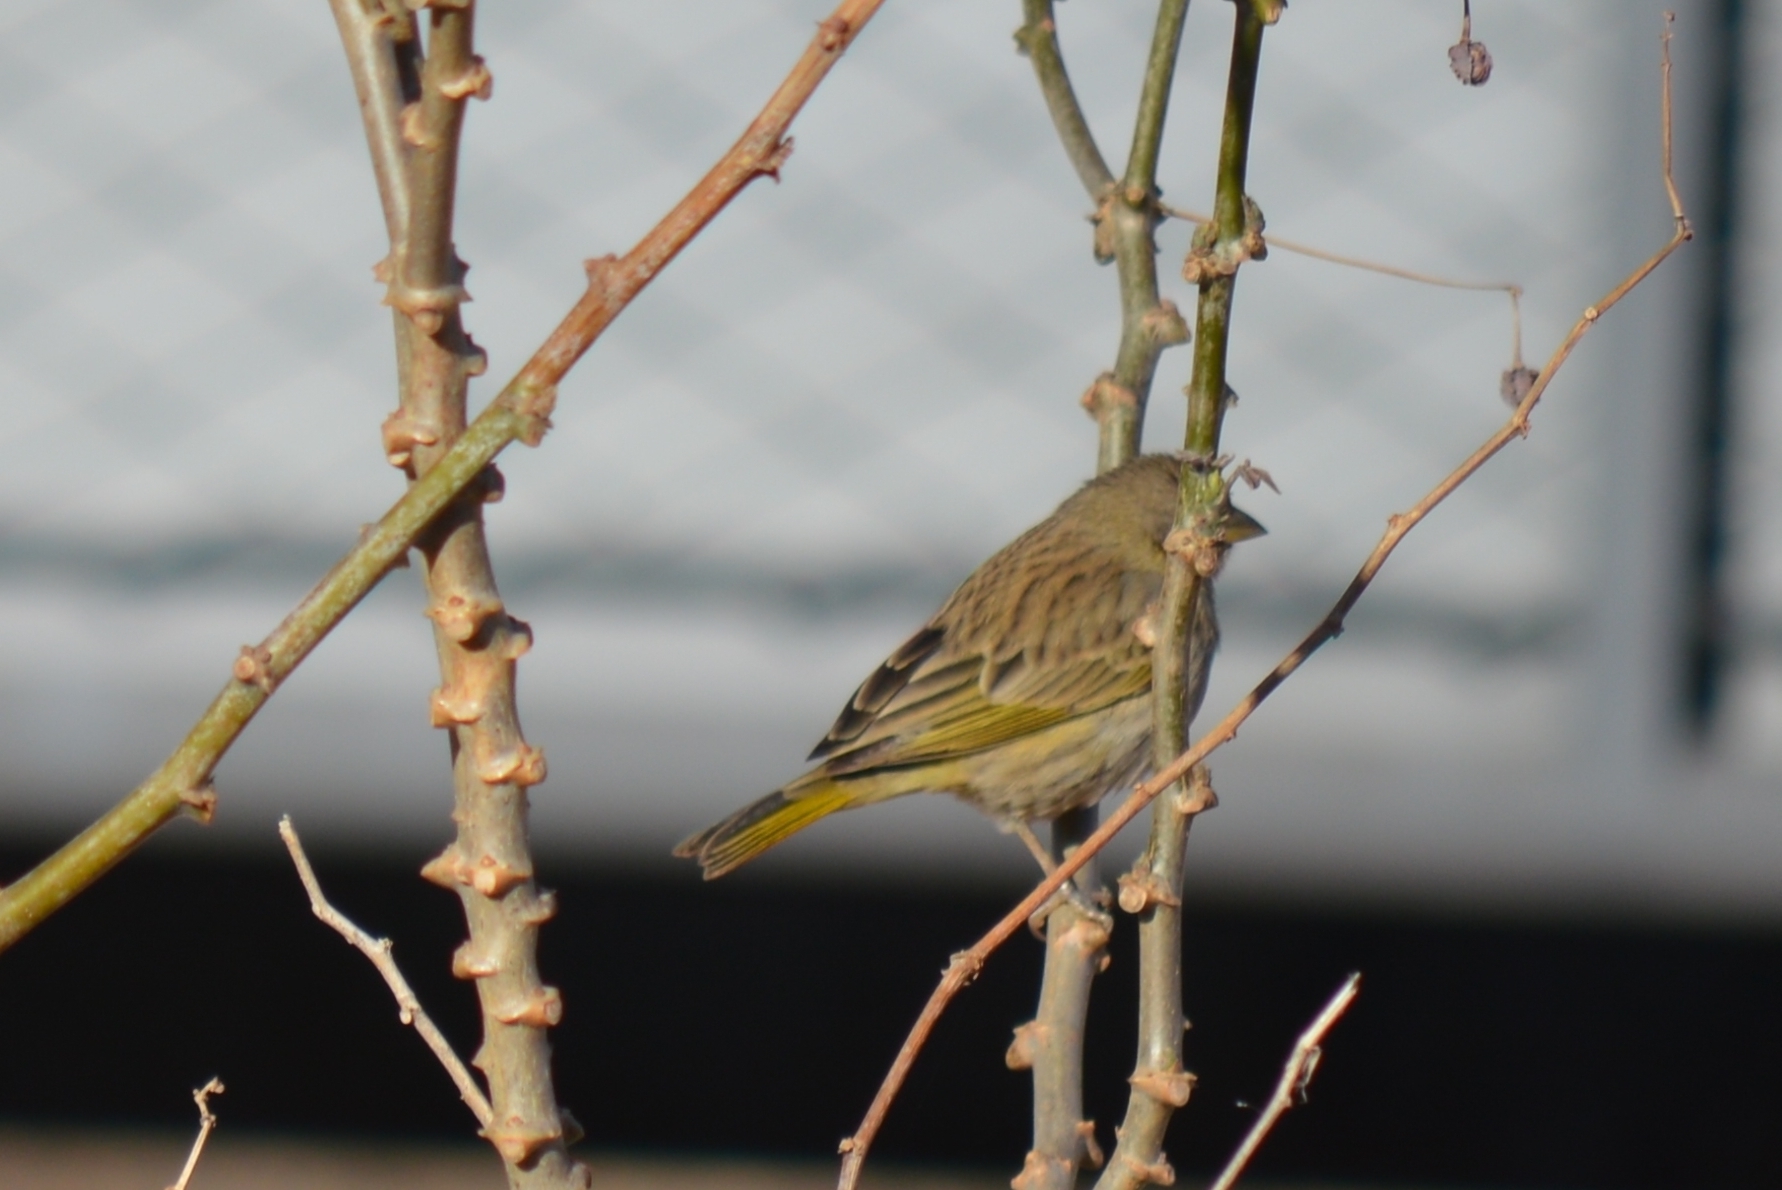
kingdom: Animalia
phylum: Chordata
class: Aves
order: Passeriformes
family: Thraupidae
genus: Sicalis
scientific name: Sicalis flaveola
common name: Saffron finch
